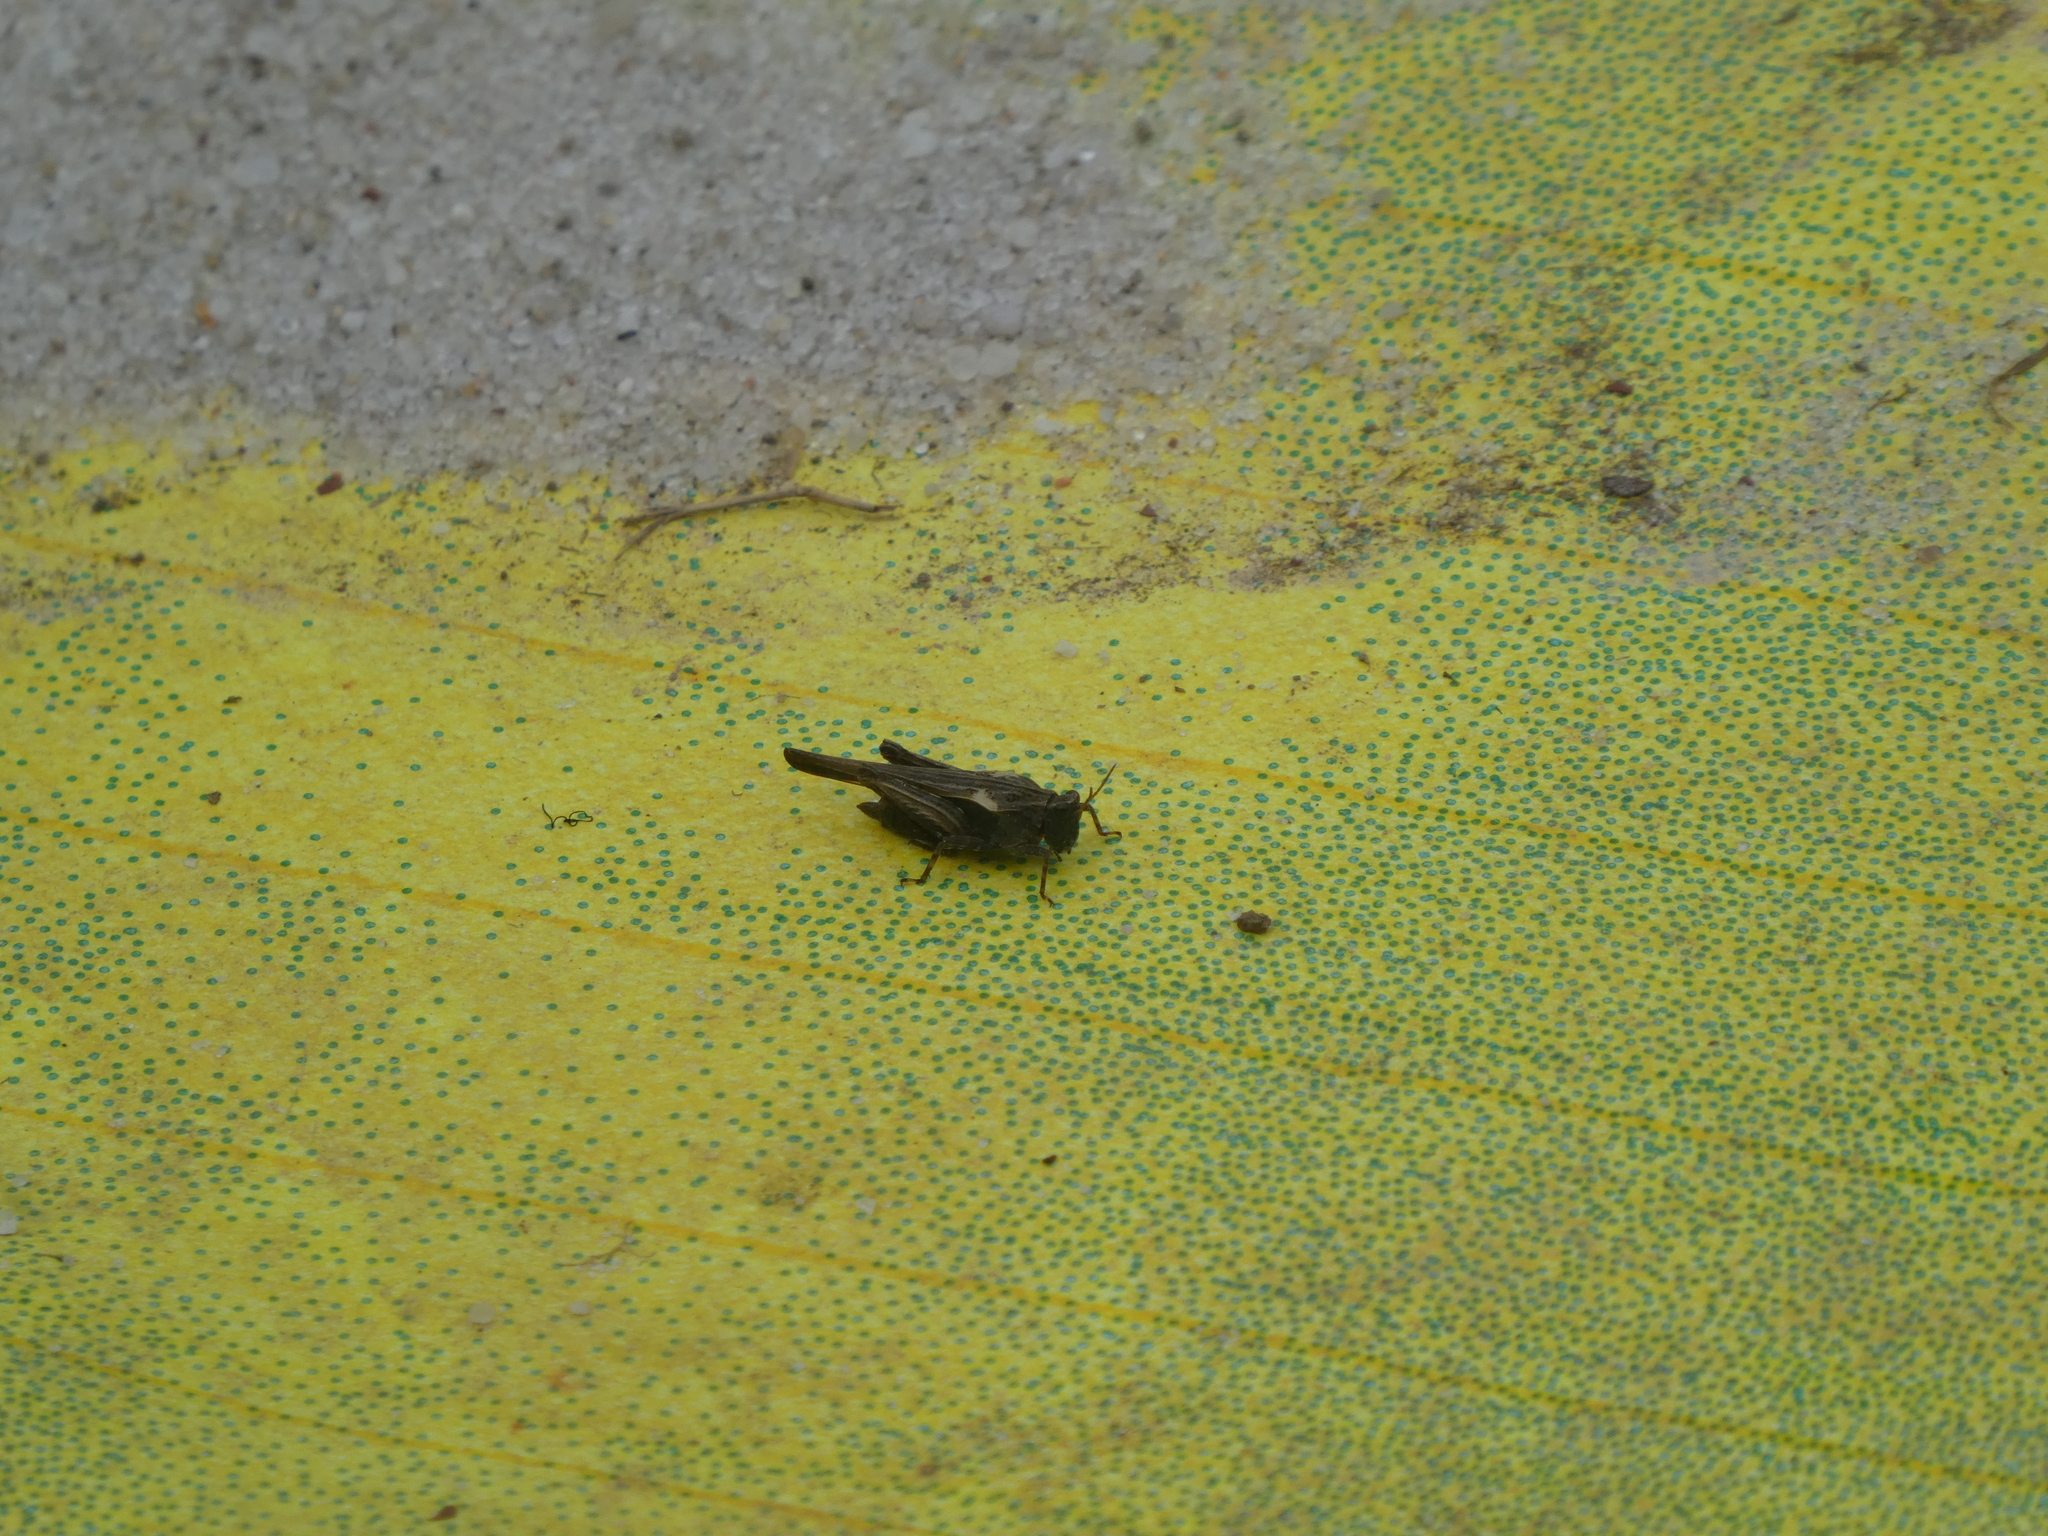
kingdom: Animalia
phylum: Arthropoda
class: Insecta
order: Orthoptera
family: Tetrigidae
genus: Tetrix
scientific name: Tetrix subulata
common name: Slender ground-hopper
